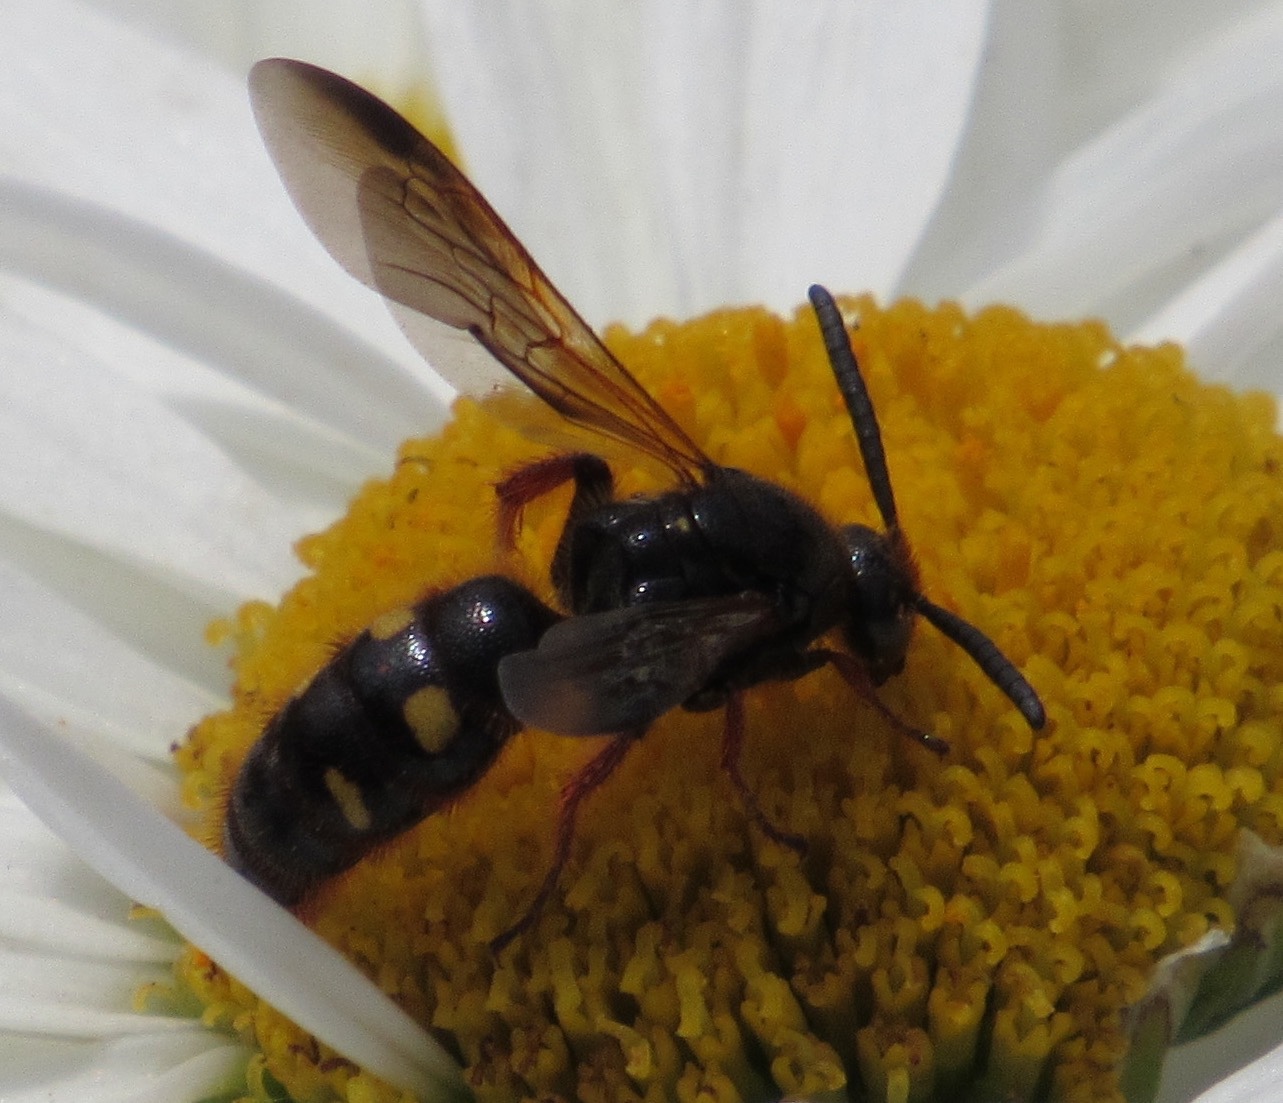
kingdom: Animalia
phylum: Arthropoda
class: Insecta
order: Hymenoptera
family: Scoliidae
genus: Scolia
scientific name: Scolia nobilitata
